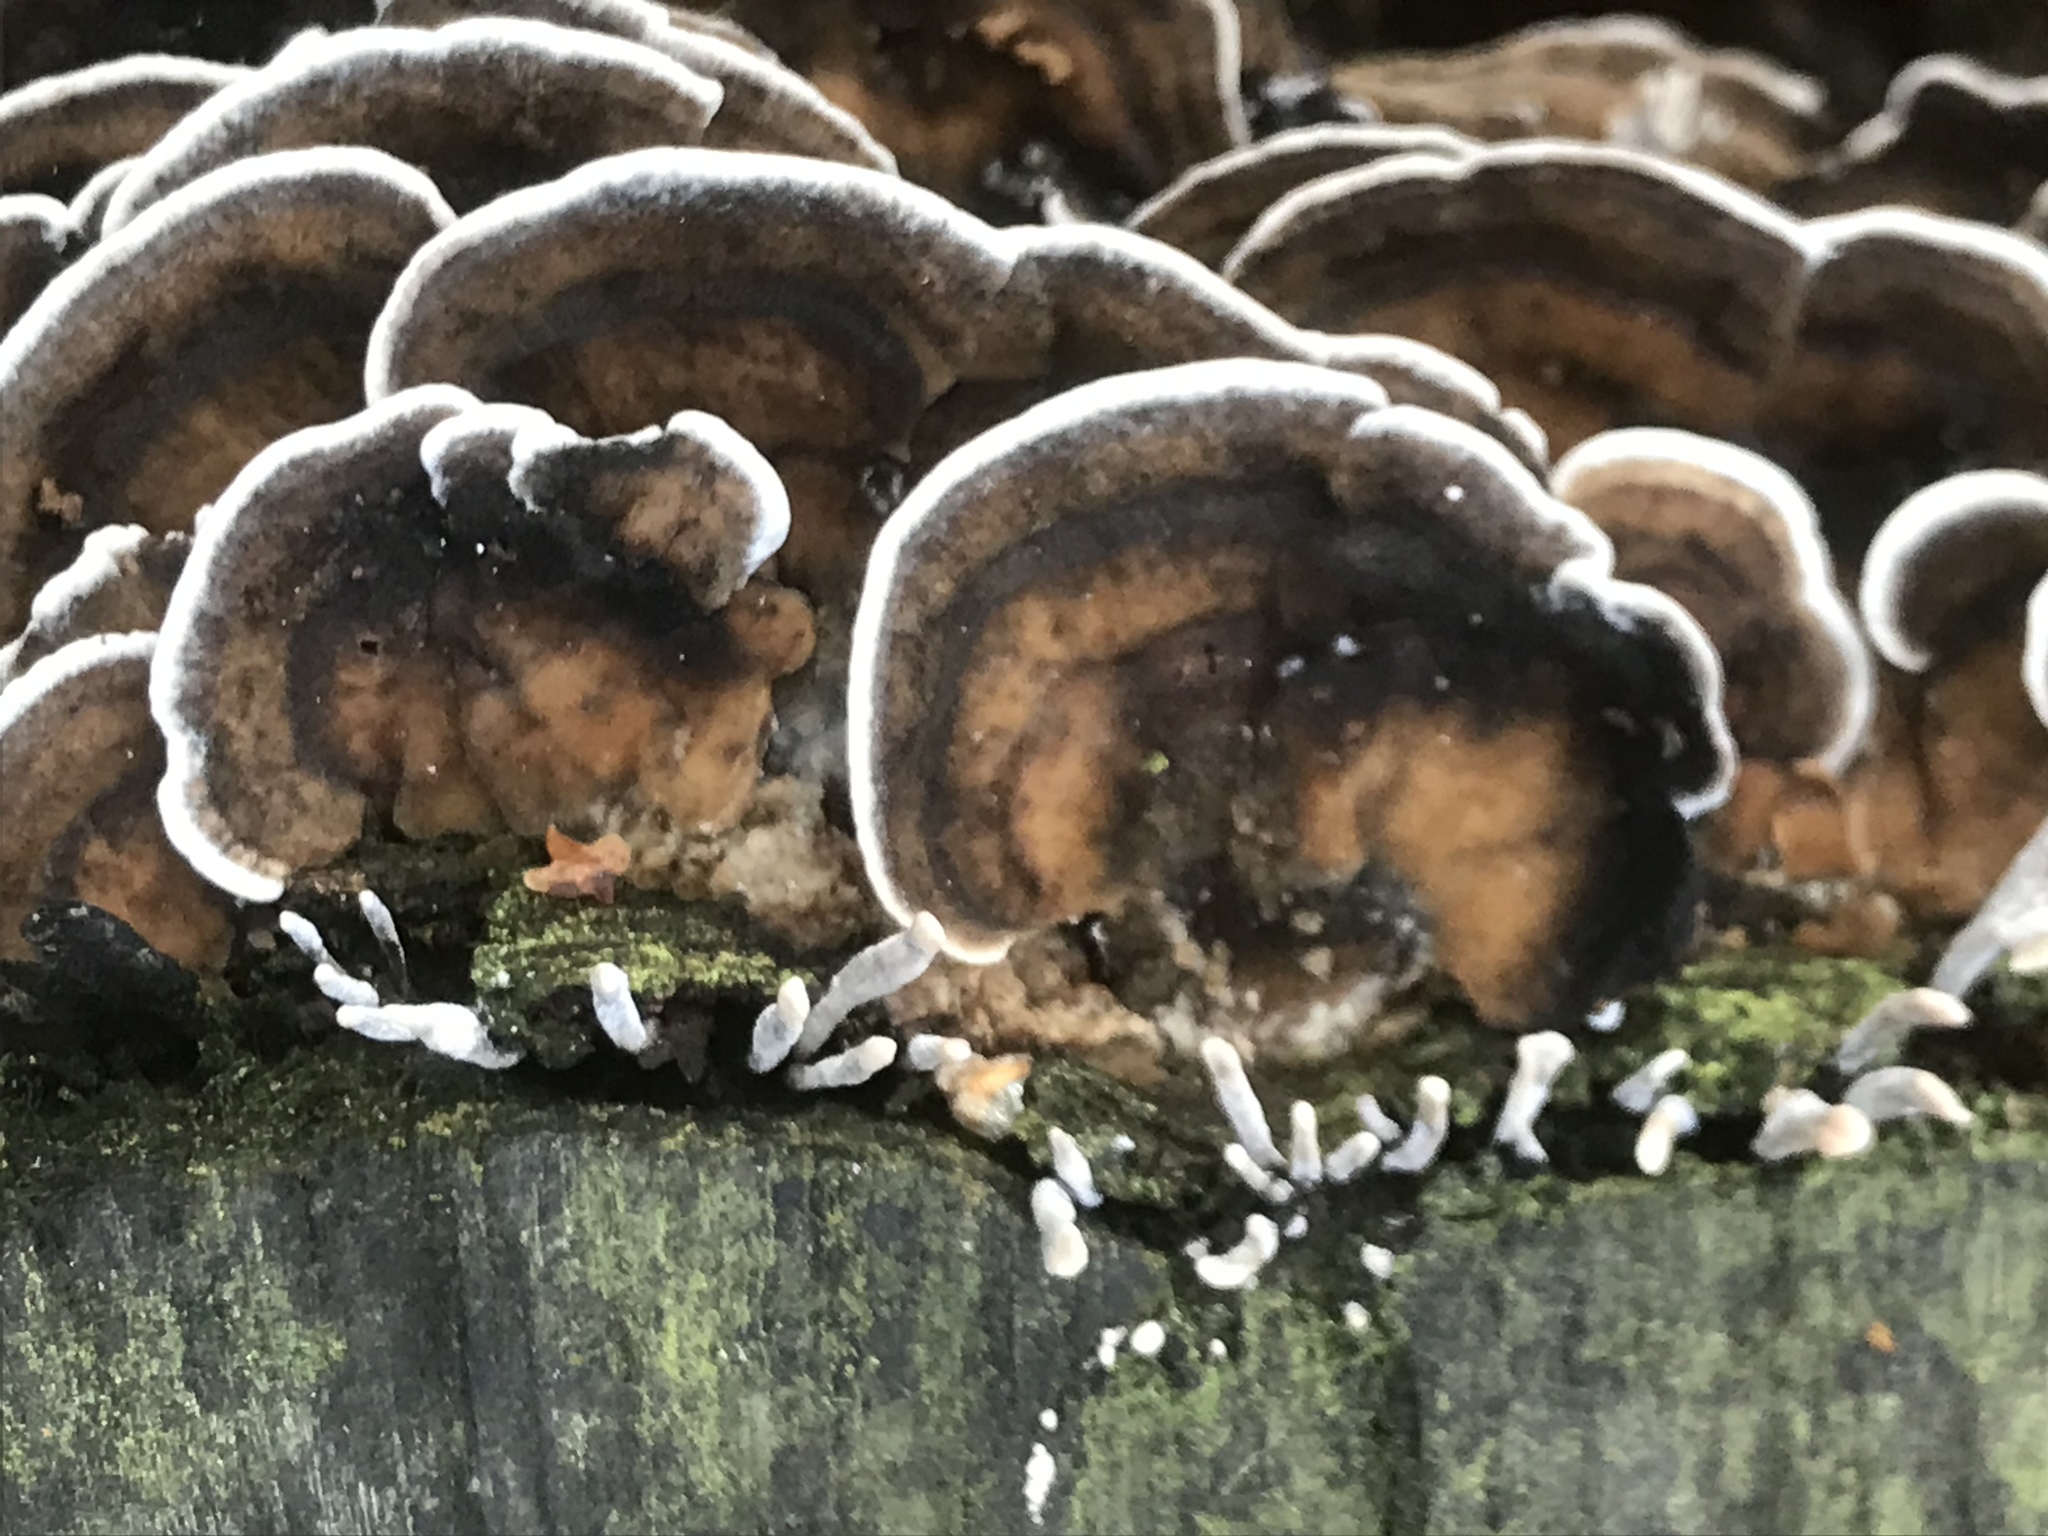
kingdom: Fungi
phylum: Basidiomycota
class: Agaricomycetes
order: Polyporales
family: Phanerochaetaceae
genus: Bjerkandera
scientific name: Bjerkandera adusta
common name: Smoky bracket
